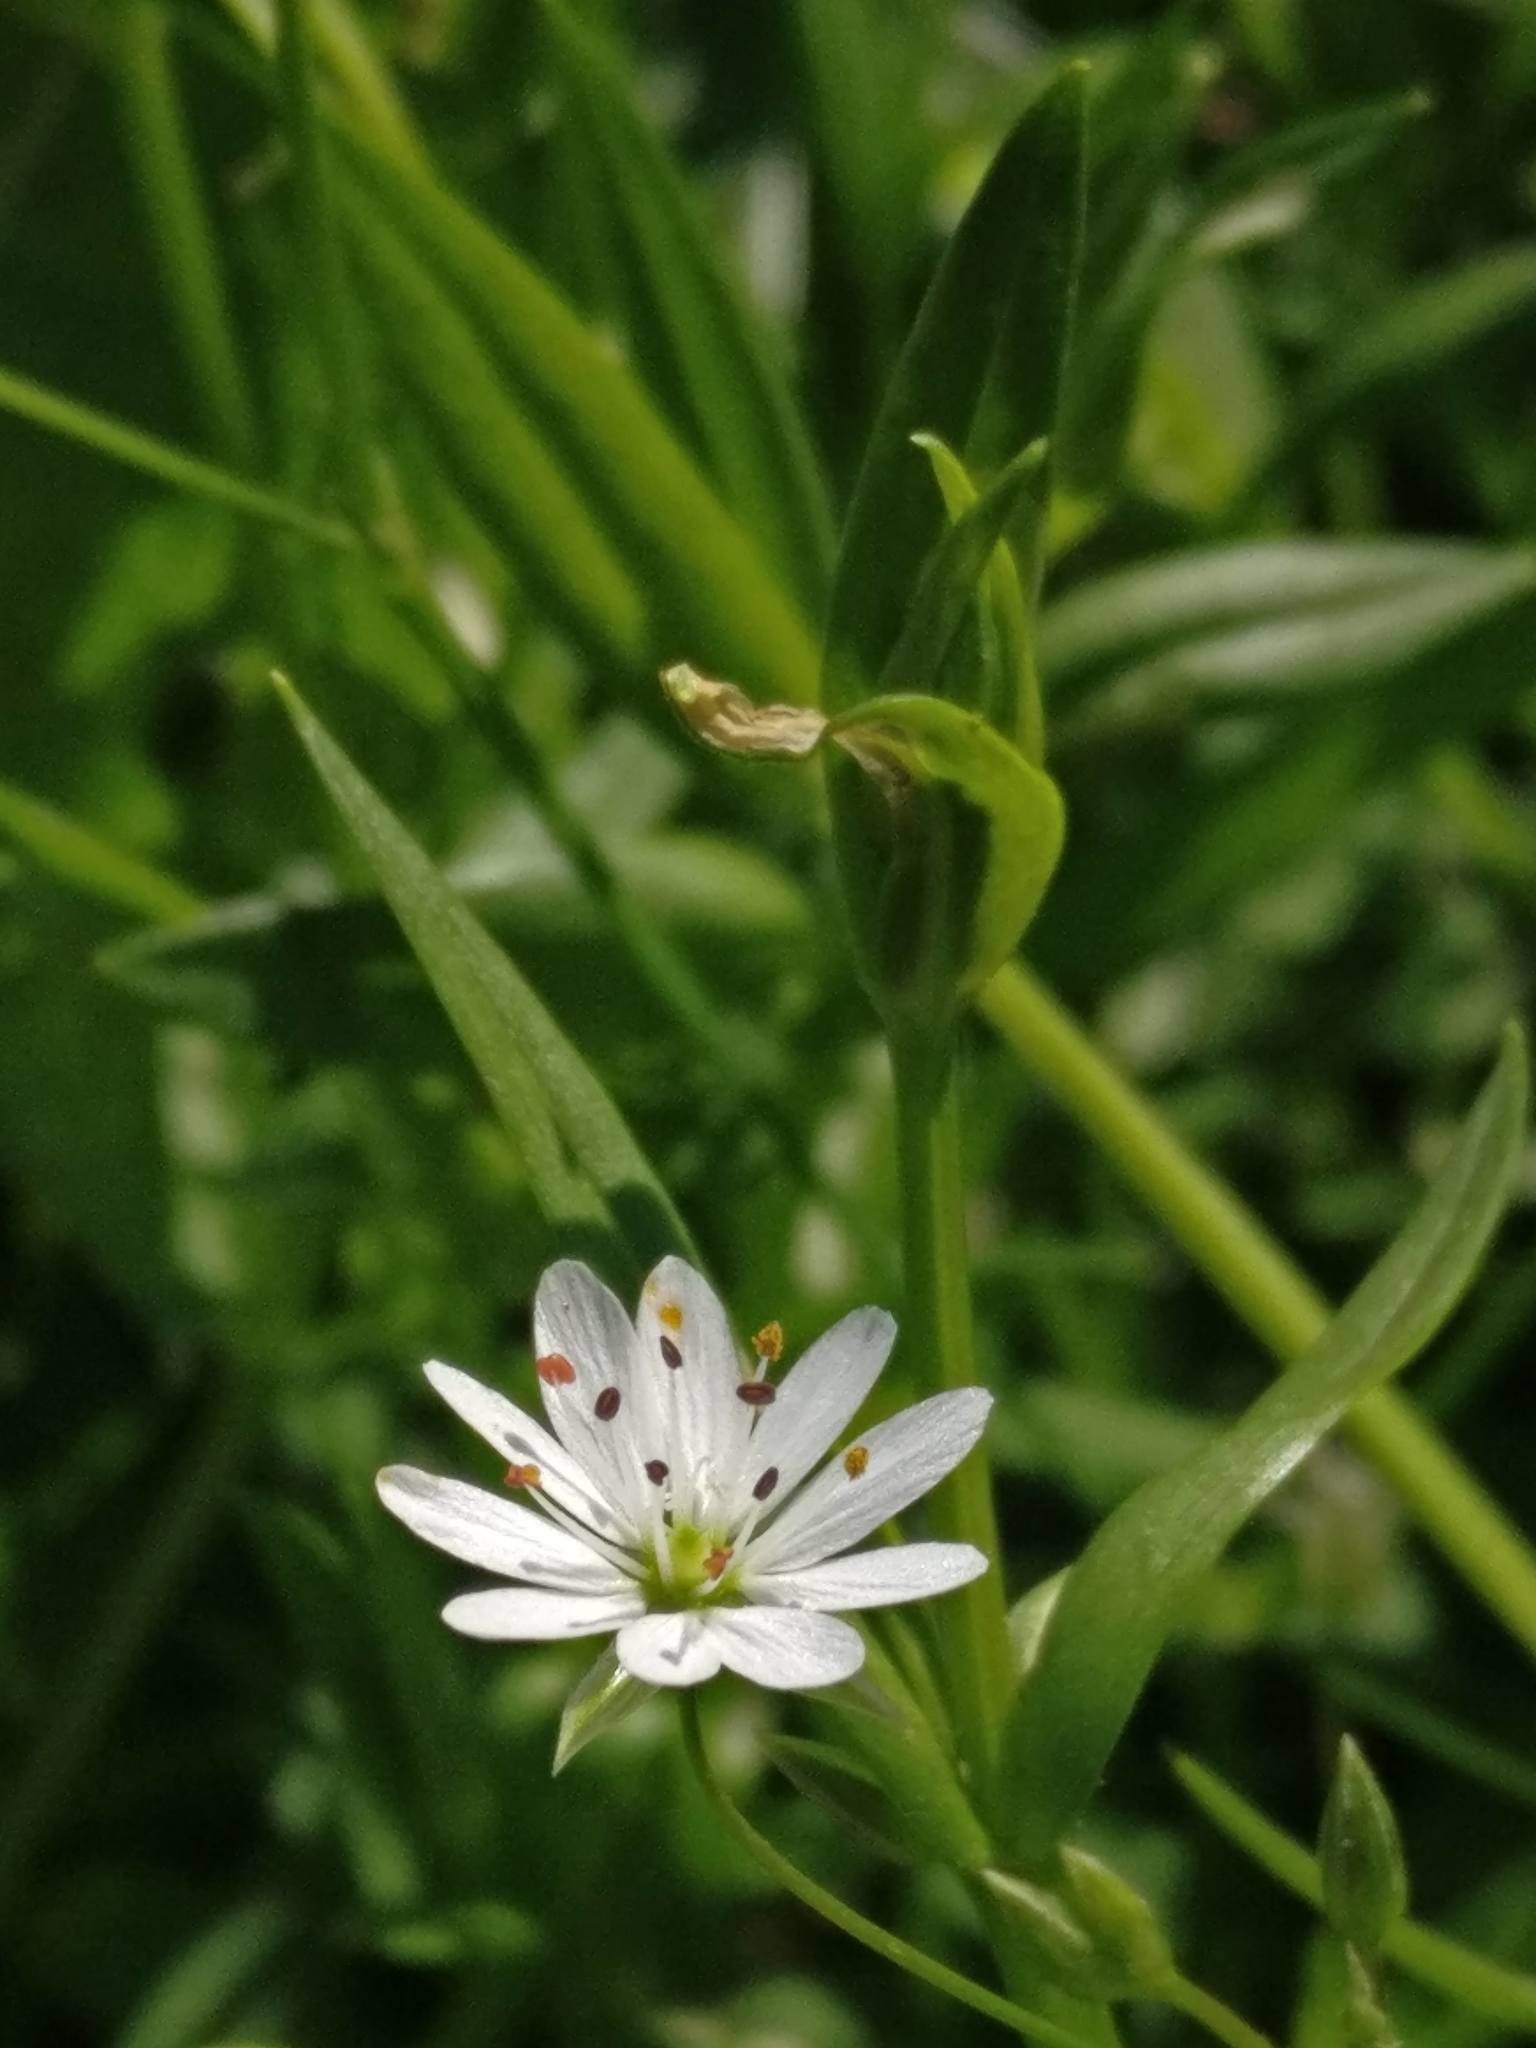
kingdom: Plantae
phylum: Tracheophyta
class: Magnoliopsida
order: Caryophyllales
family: Caryophyllaceae
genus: Stellaria
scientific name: Stellaria graminea
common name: Grass-like starwort
